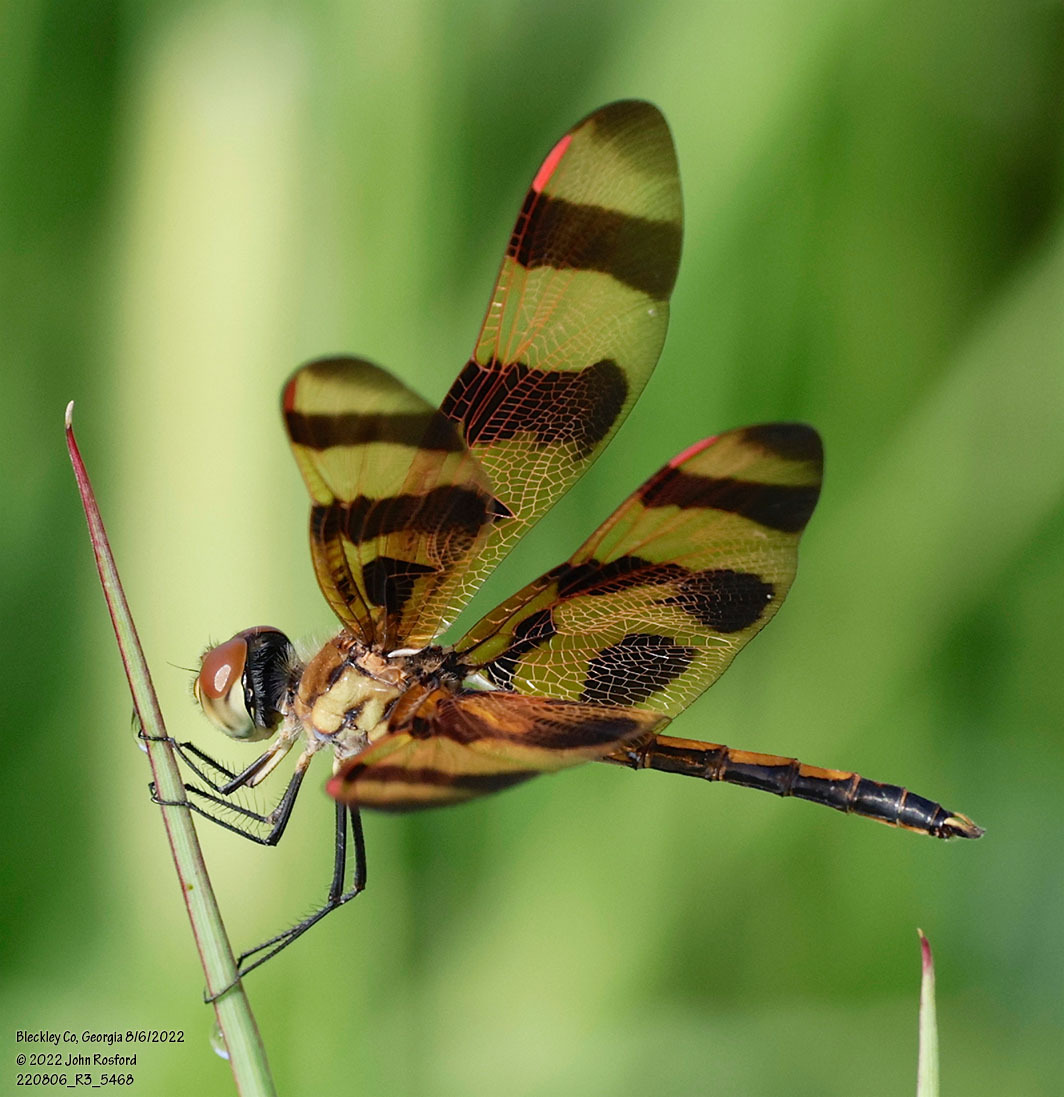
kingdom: Animalia
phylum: Arthropoda
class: Insecta
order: Odonata
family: Libellulidae
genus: Celithemis
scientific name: Celithemis eponina
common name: Halloween pennant
